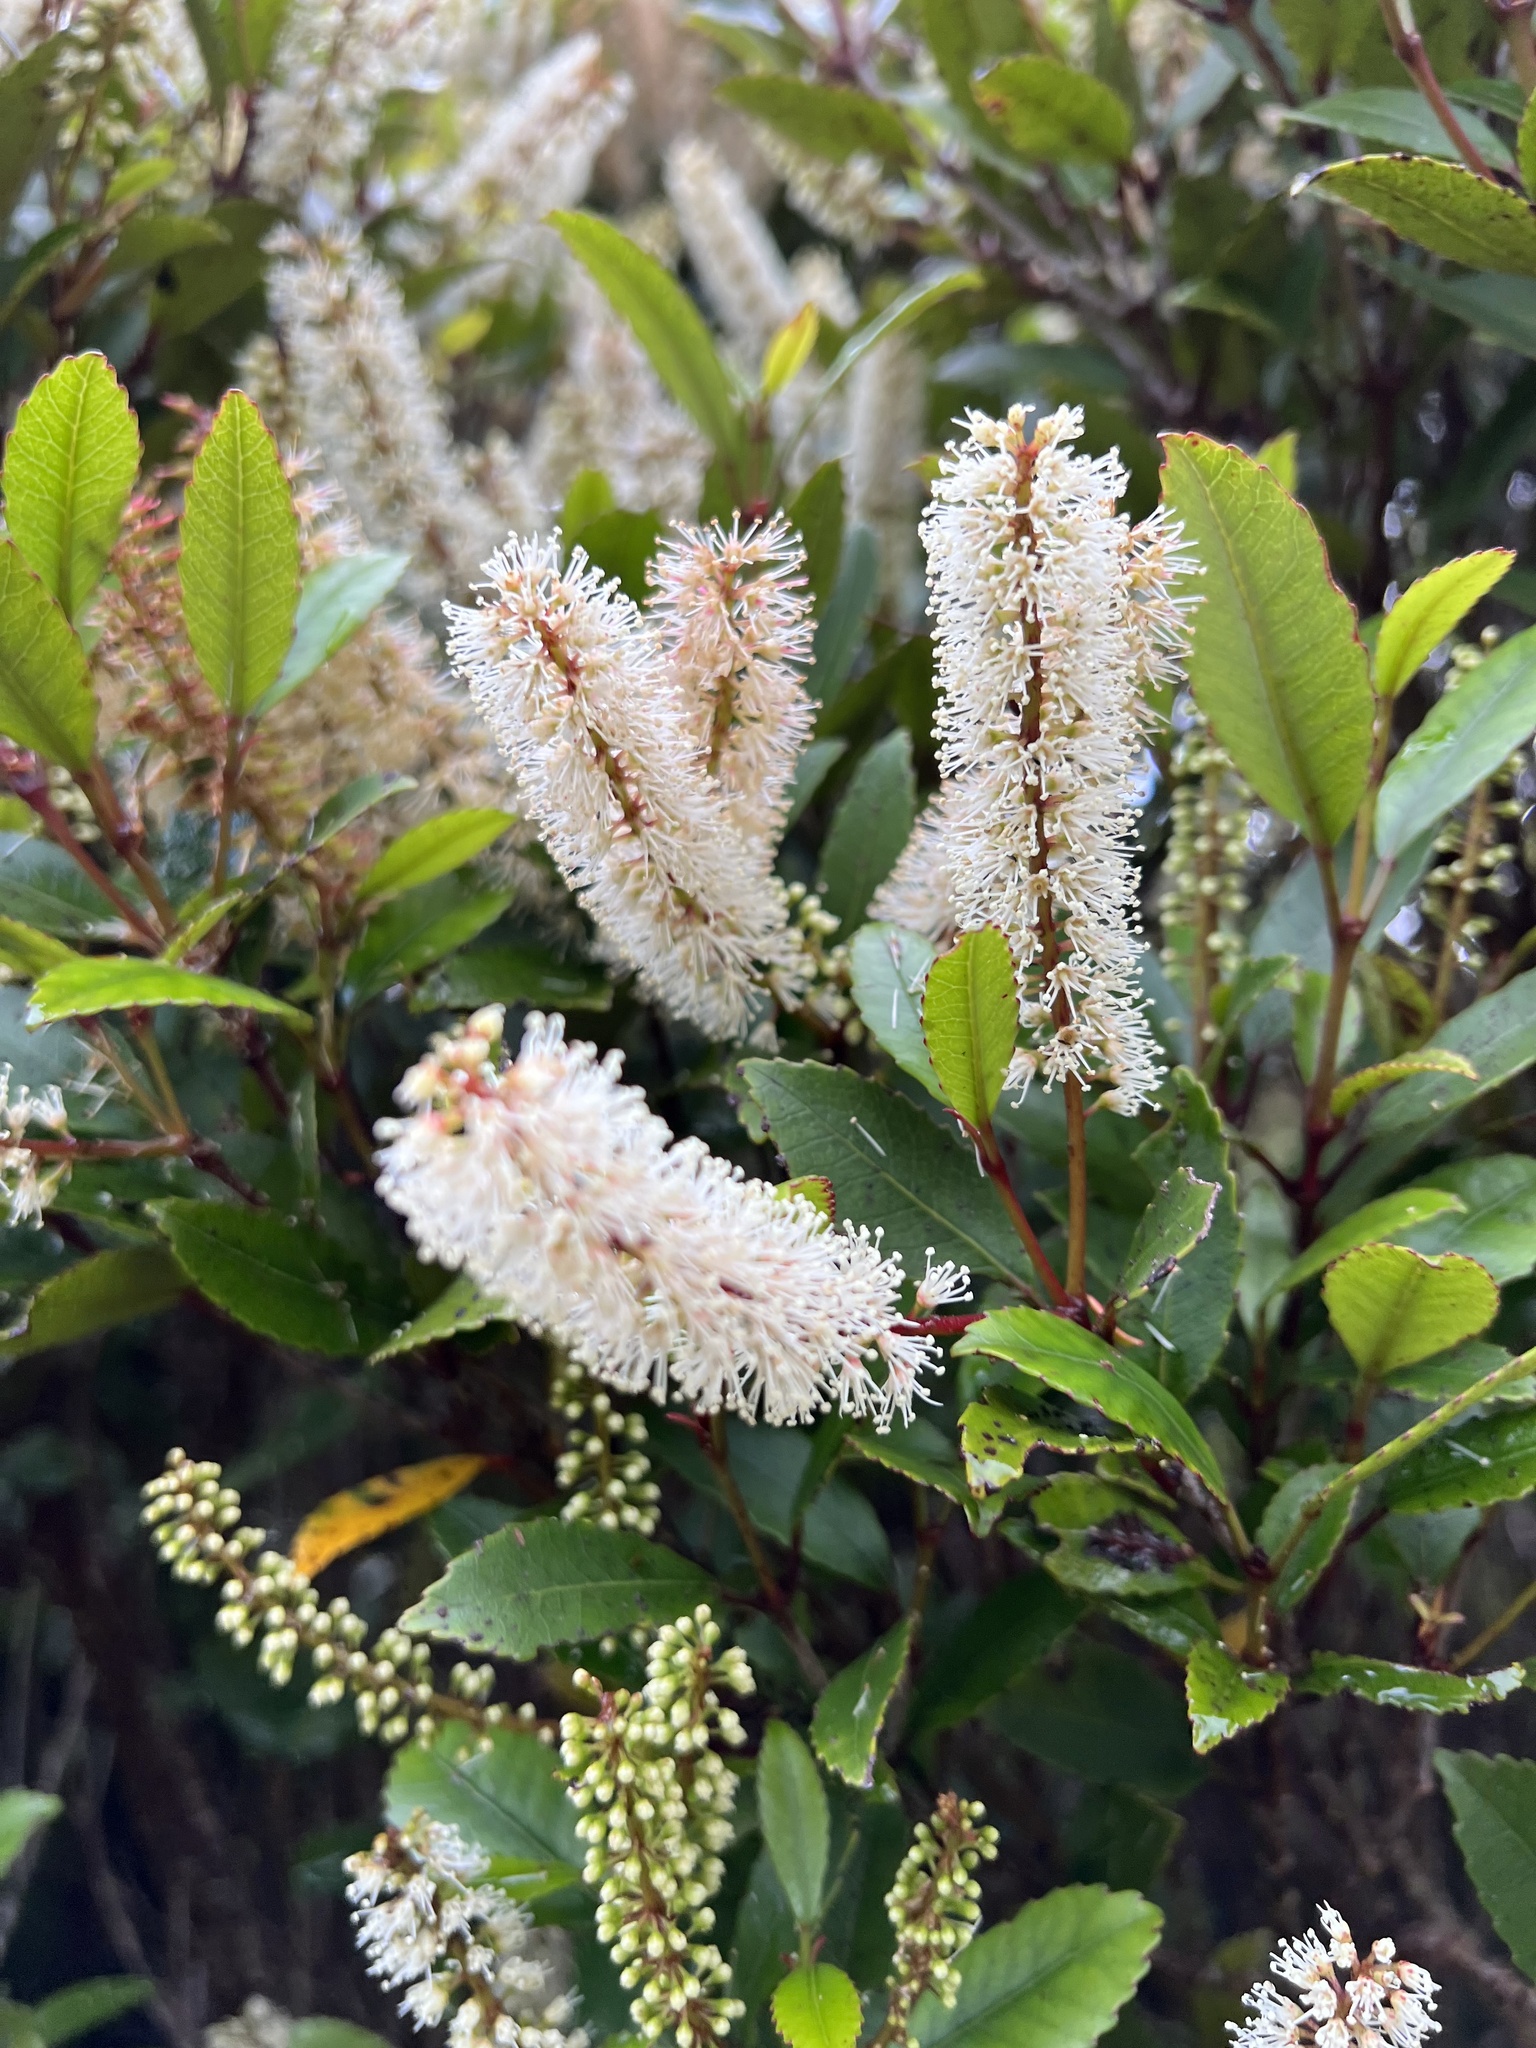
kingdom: Plantae
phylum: Tracheophyta
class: Magnoliopsida
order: Oxalidales
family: Cunoniaceae
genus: Pterophylla
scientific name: Pterophylla racemosa
